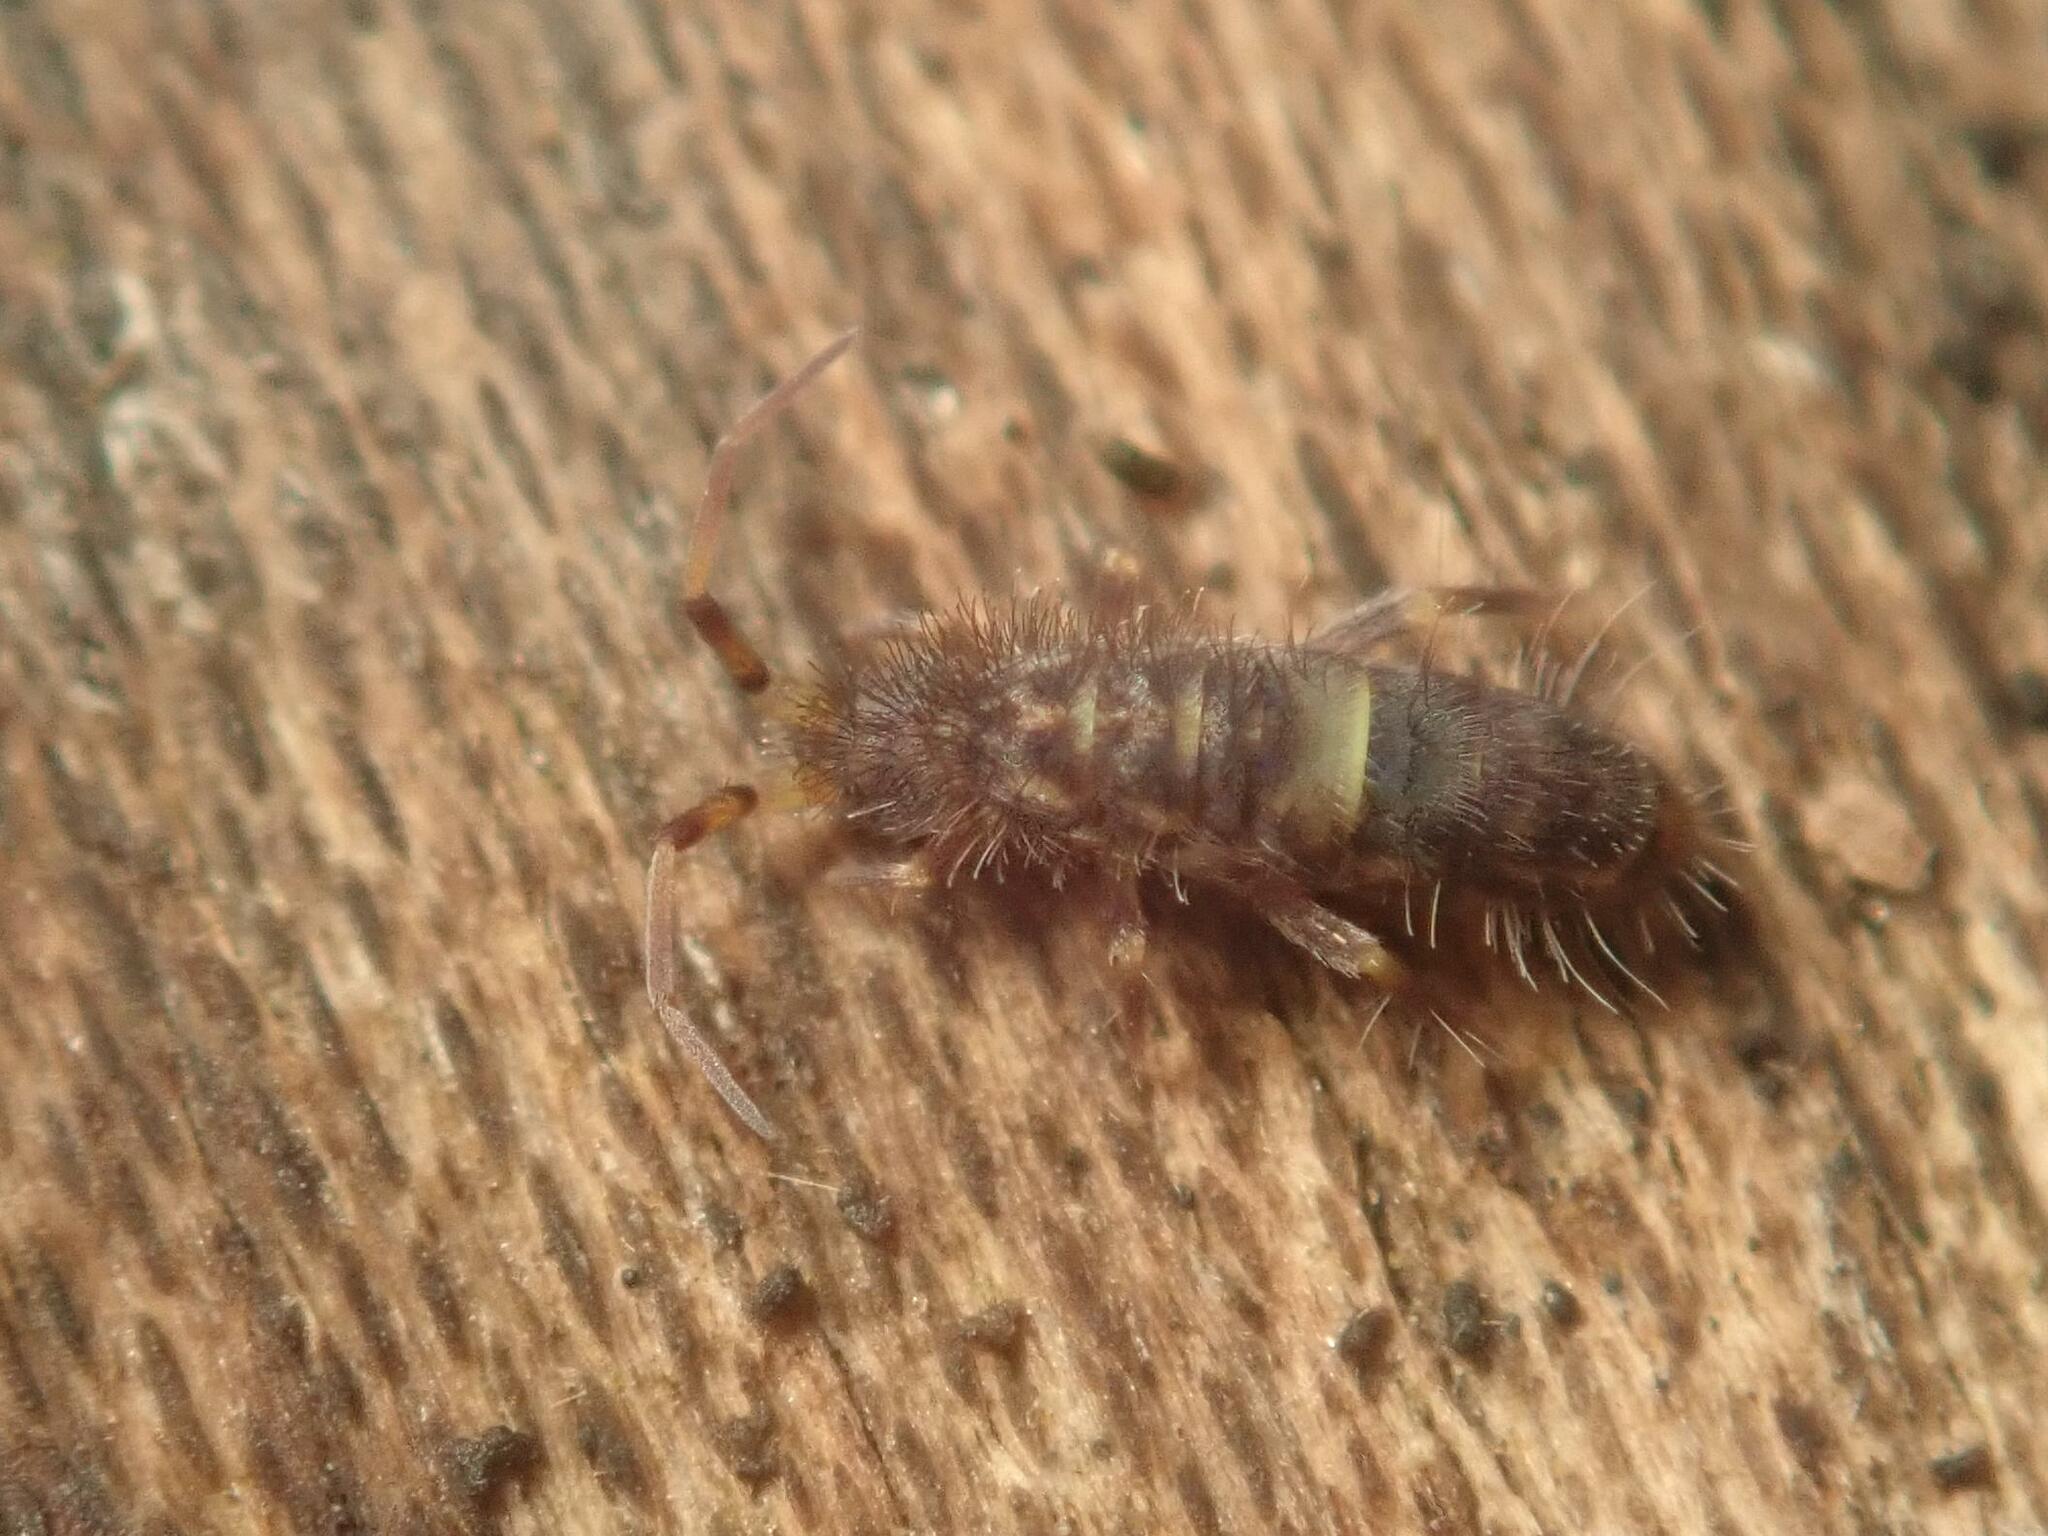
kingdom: Animalia
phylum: Arthropoda
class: Collembola
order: Entomobryomorpha
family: Orchesellidae
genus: Orchesella
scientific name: Orchesella cincta
